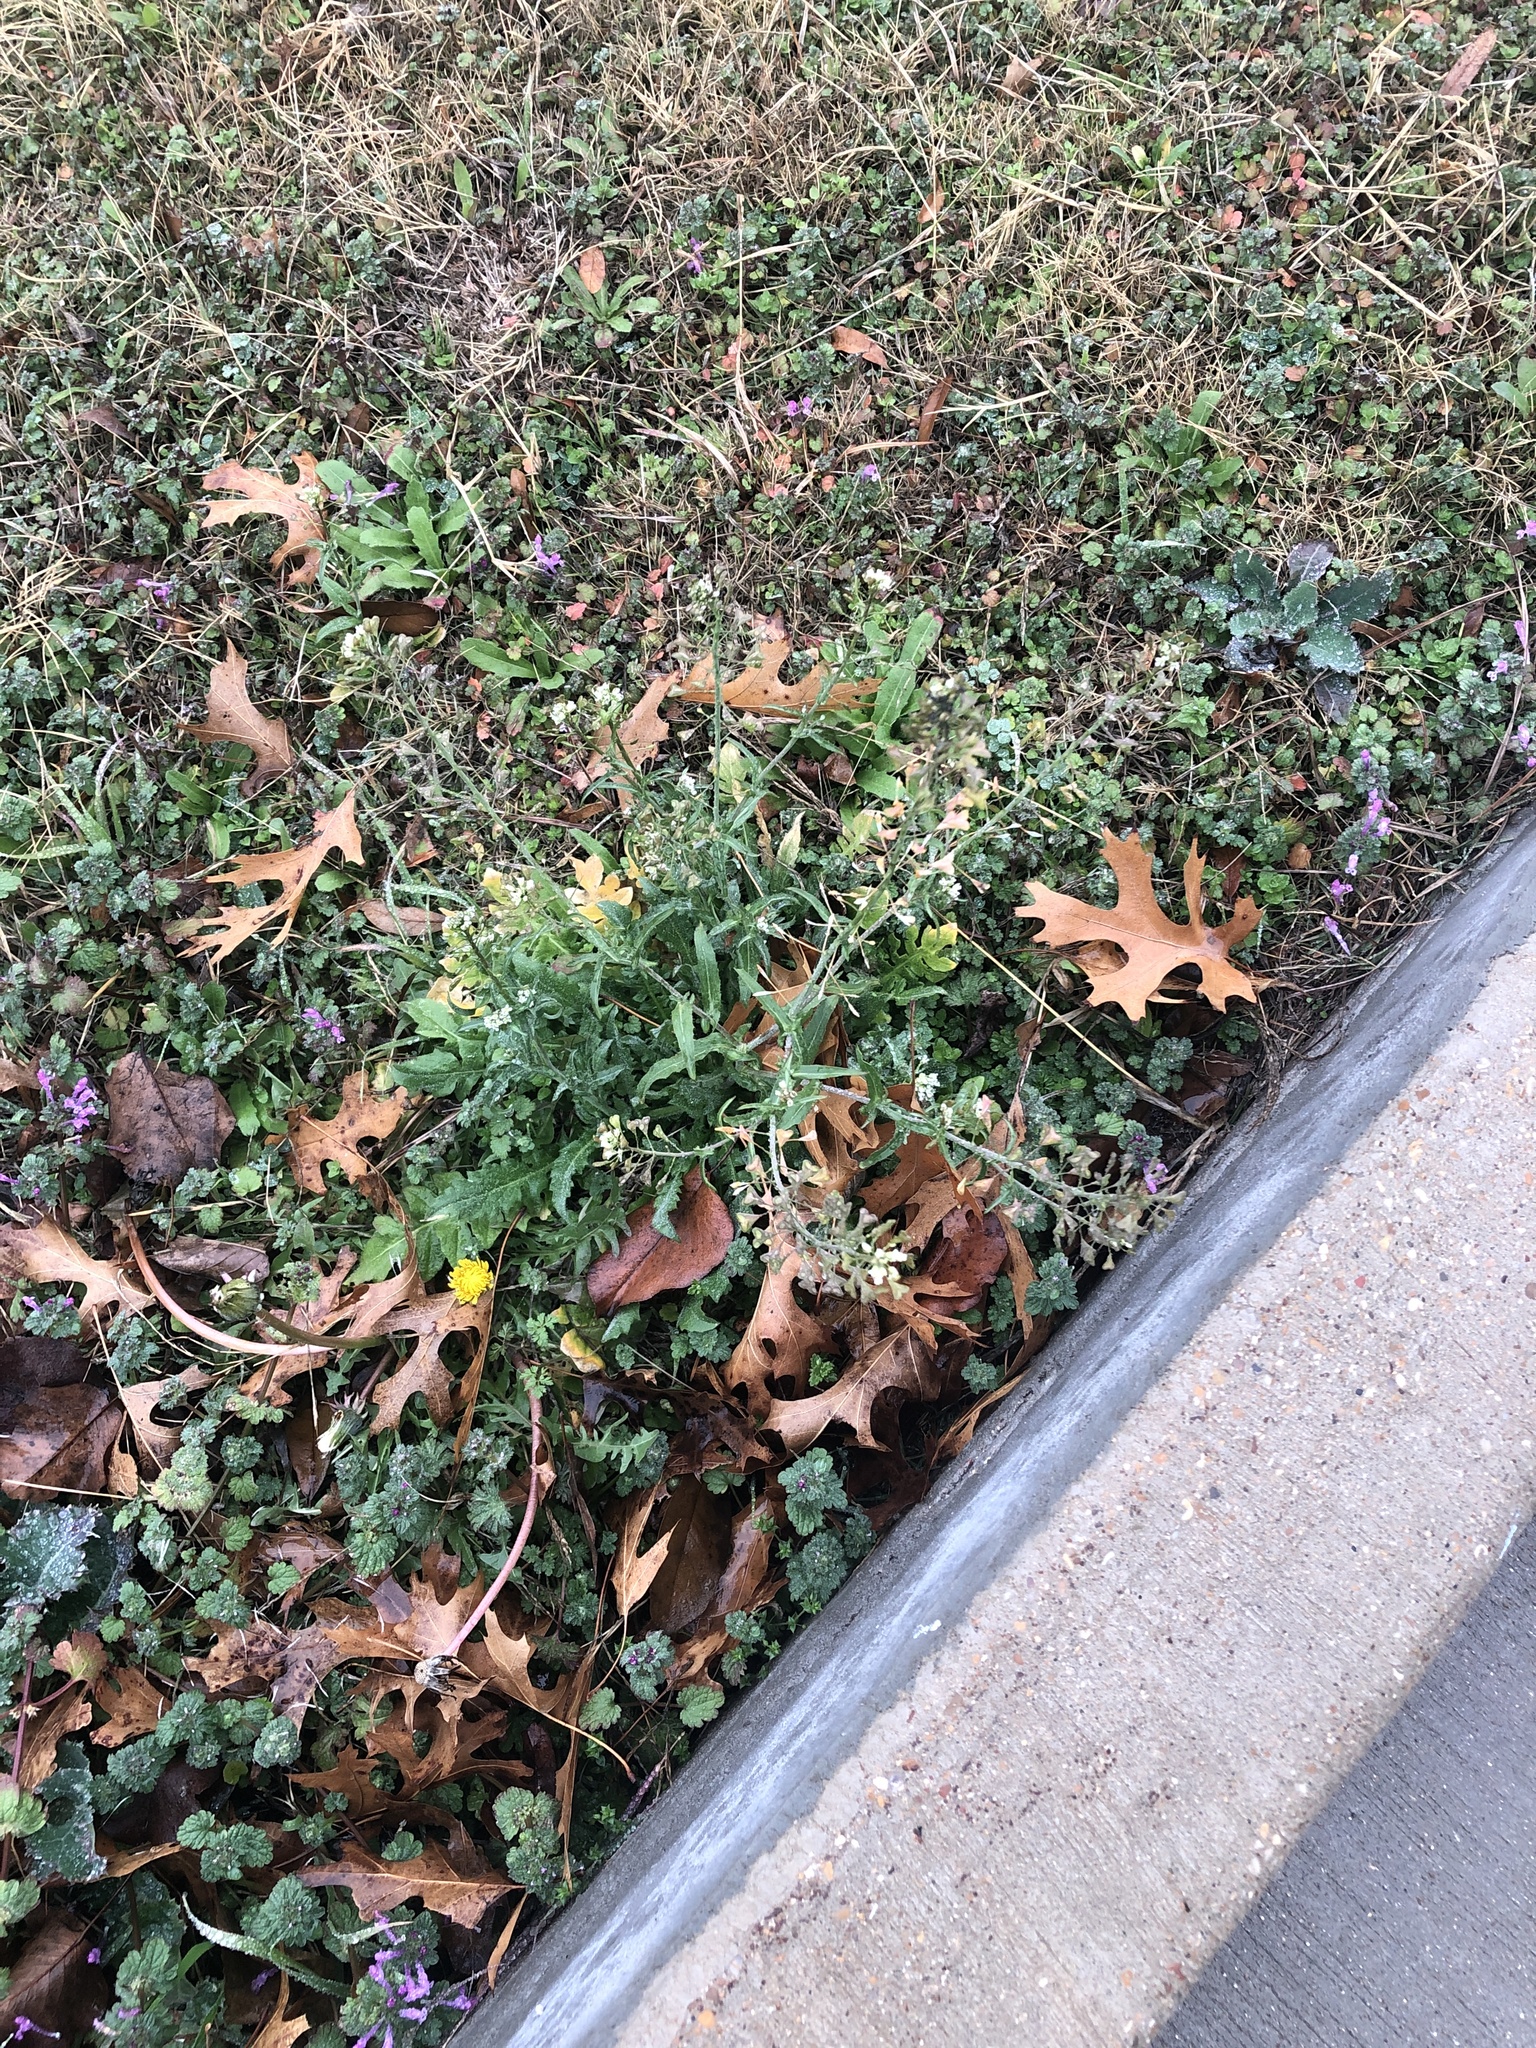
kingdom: Plantae
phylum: Tracheophyta
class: Magnoliopsida
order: Brassicales
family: Brassicaceae
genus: Capsella
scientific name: Capsella bursa-pastoris
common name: Shepherd's purse
